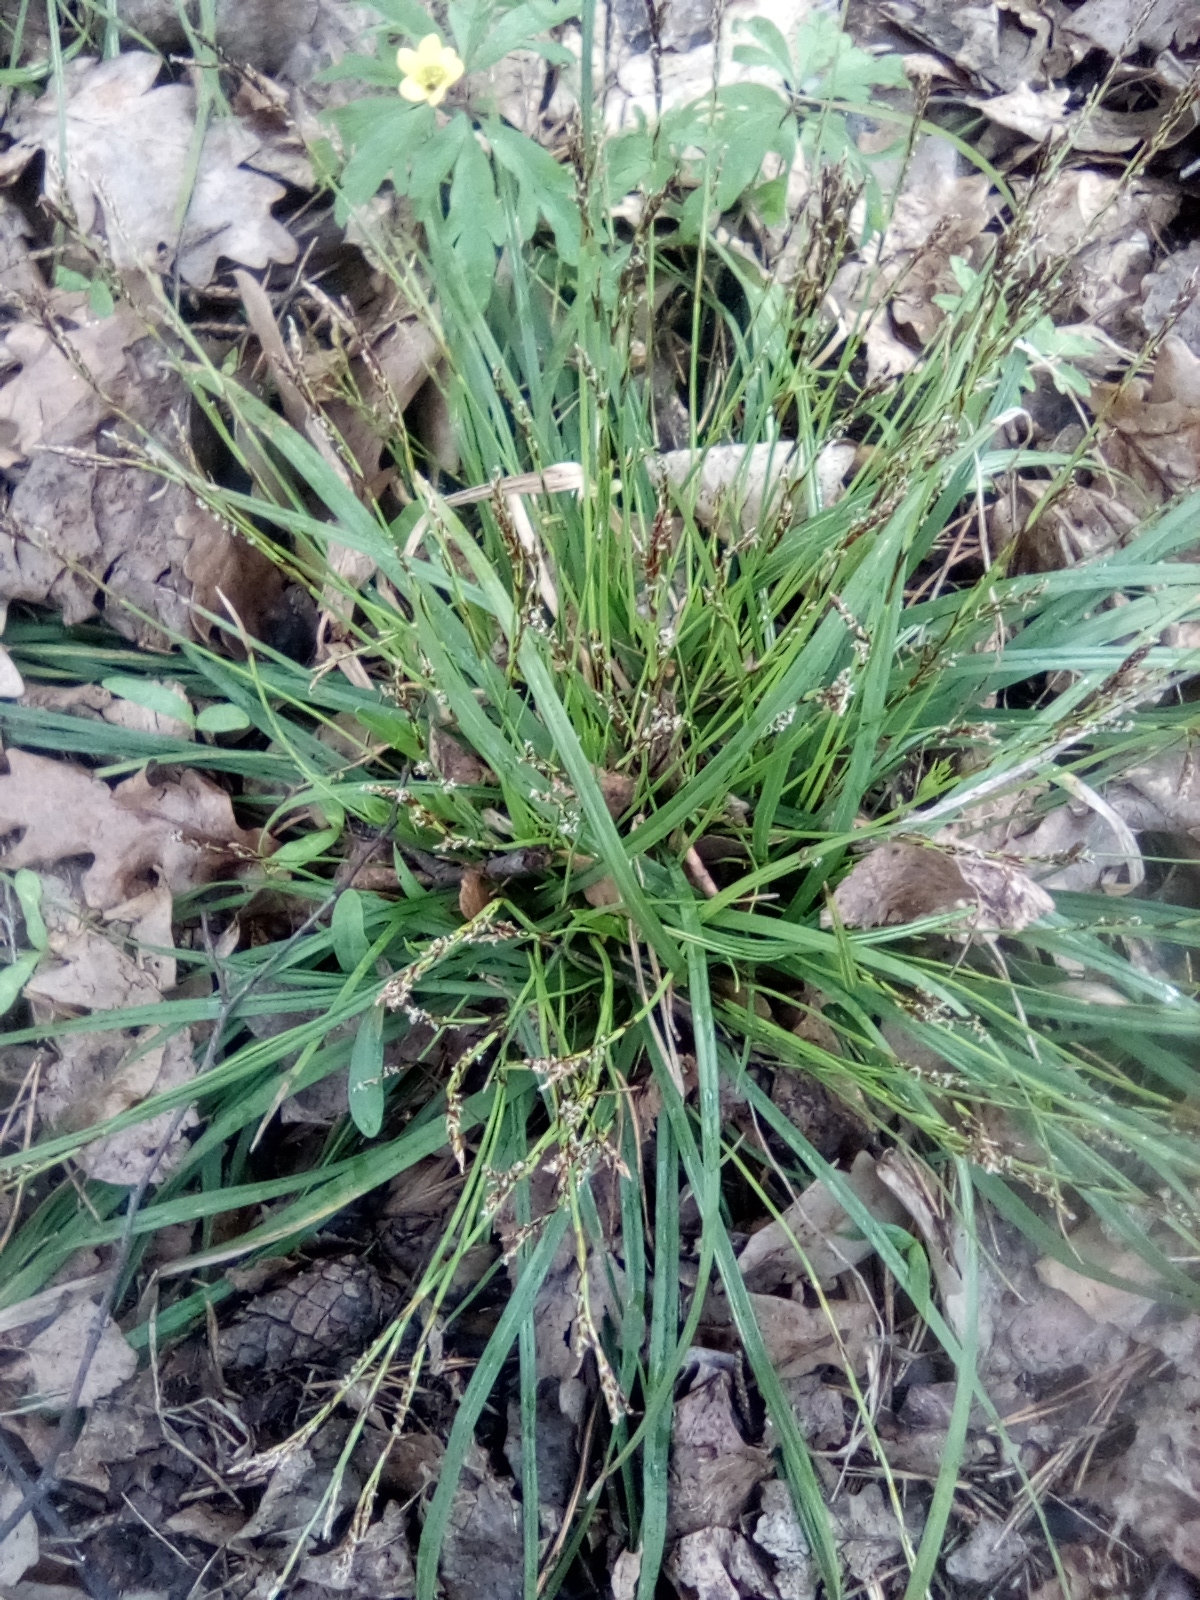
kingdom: Plantae
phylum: Tracheophyta
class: Liliopsida
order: Poales
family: Cyperaceae
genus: Carex
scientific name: Carex digitata
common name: Fingered sedge
